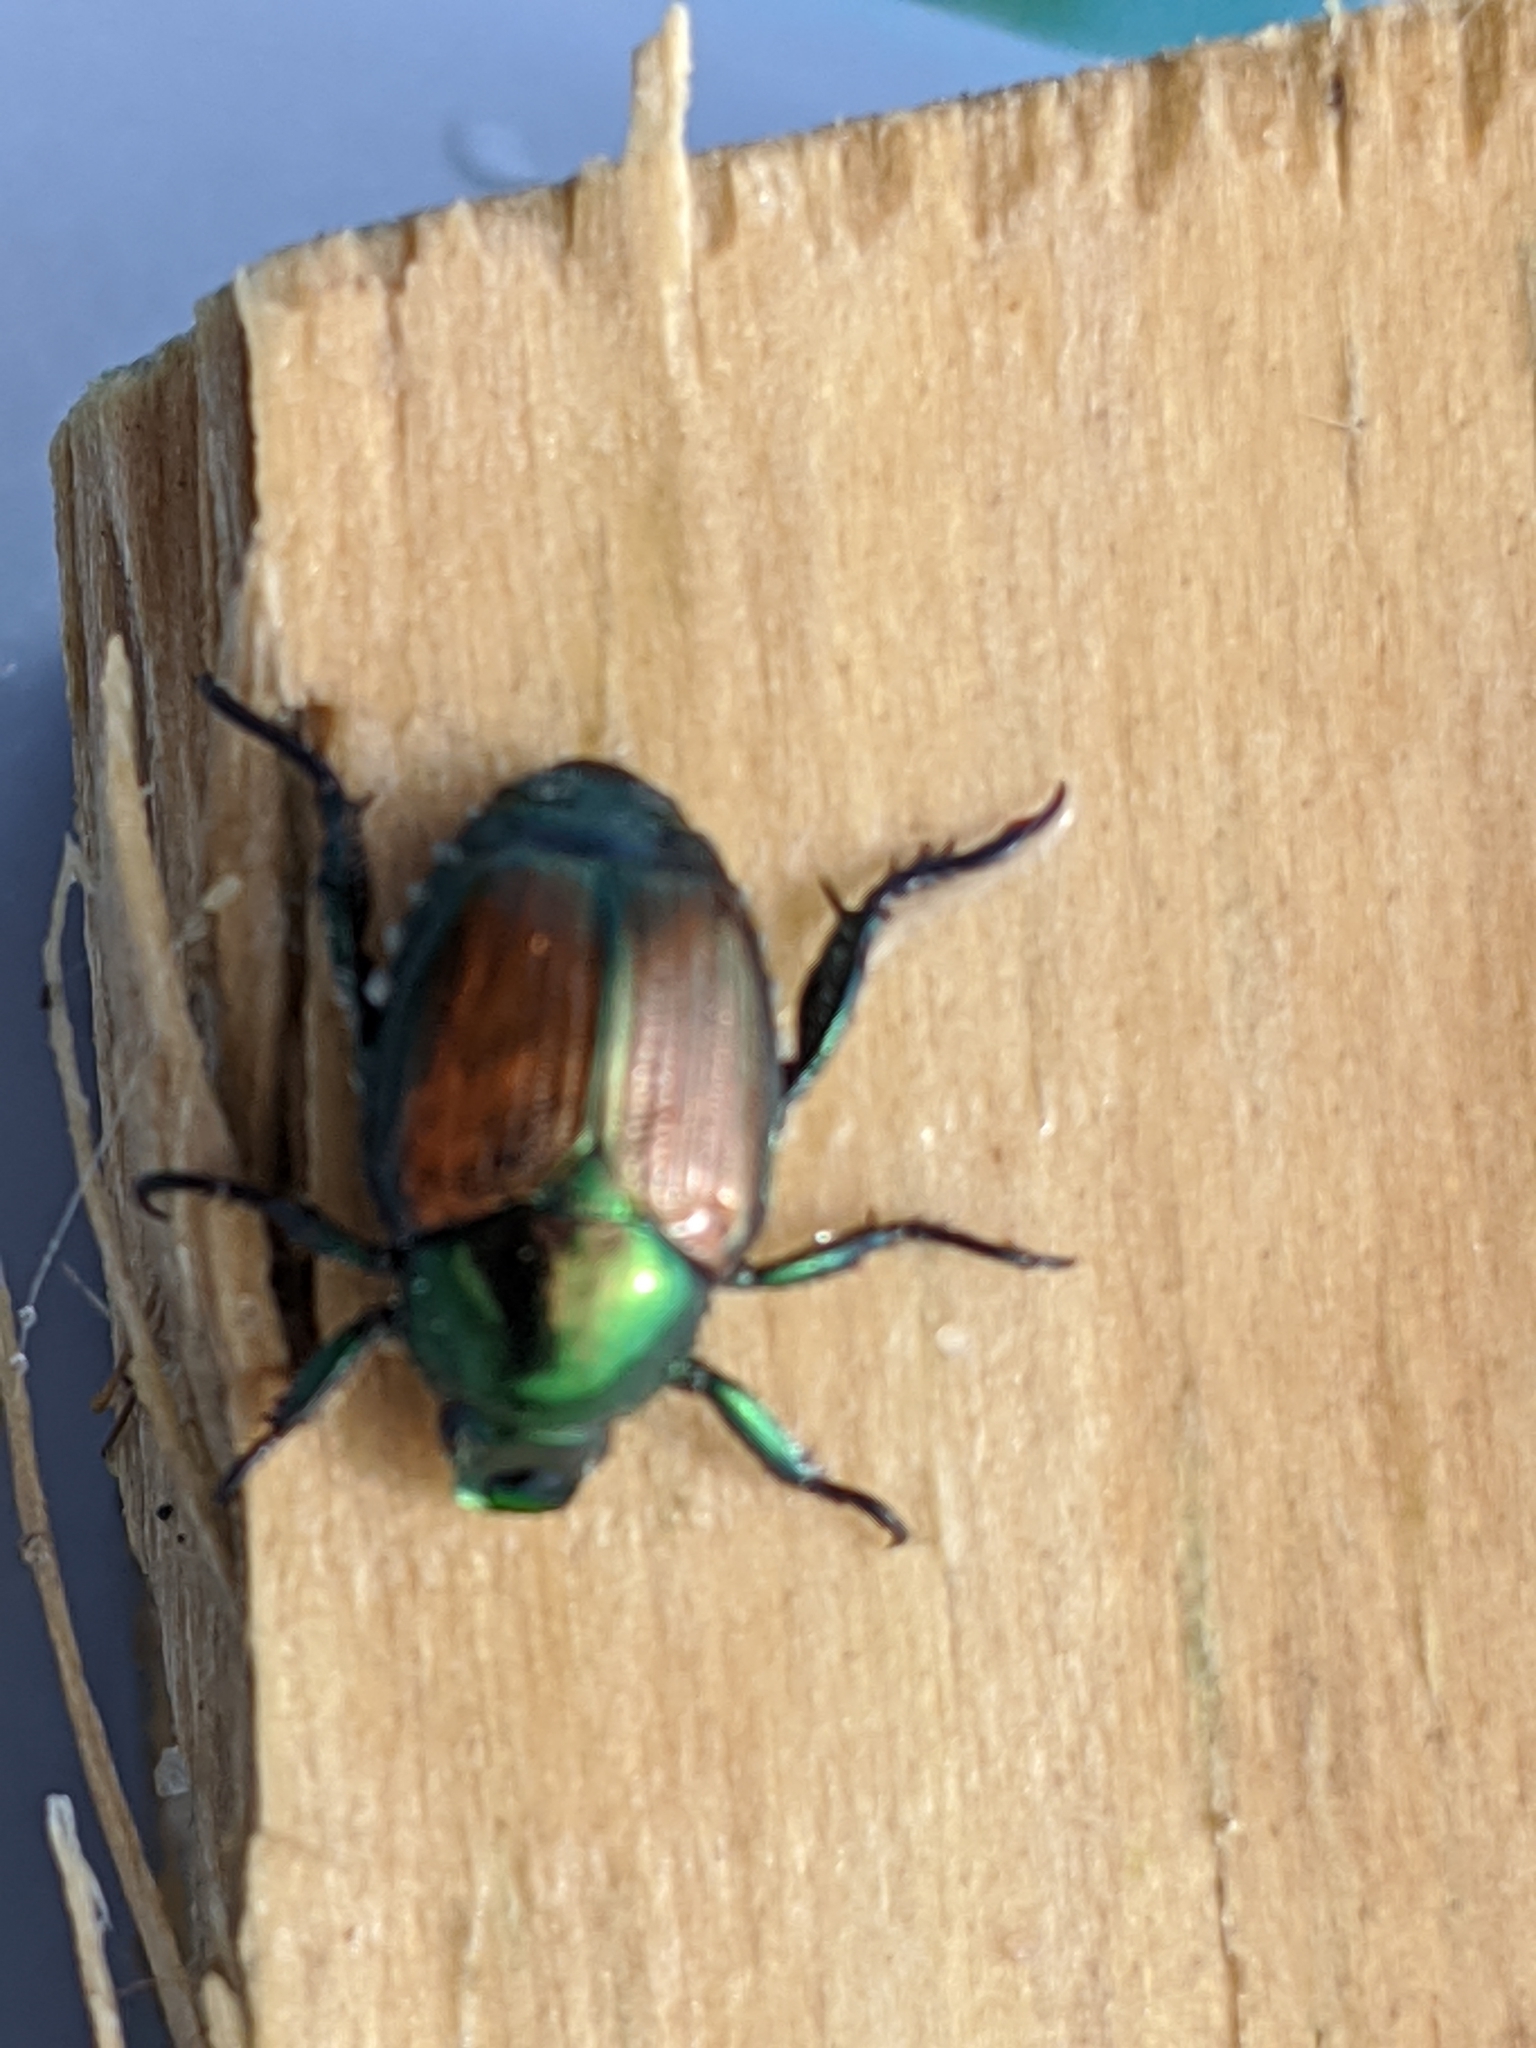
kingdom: Animalia
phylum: Arthropoda
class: Insecta
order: Coleoptera
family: Scarabaeidae
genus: Popillia
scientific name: Popillia japonica
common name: Japanese beetle
